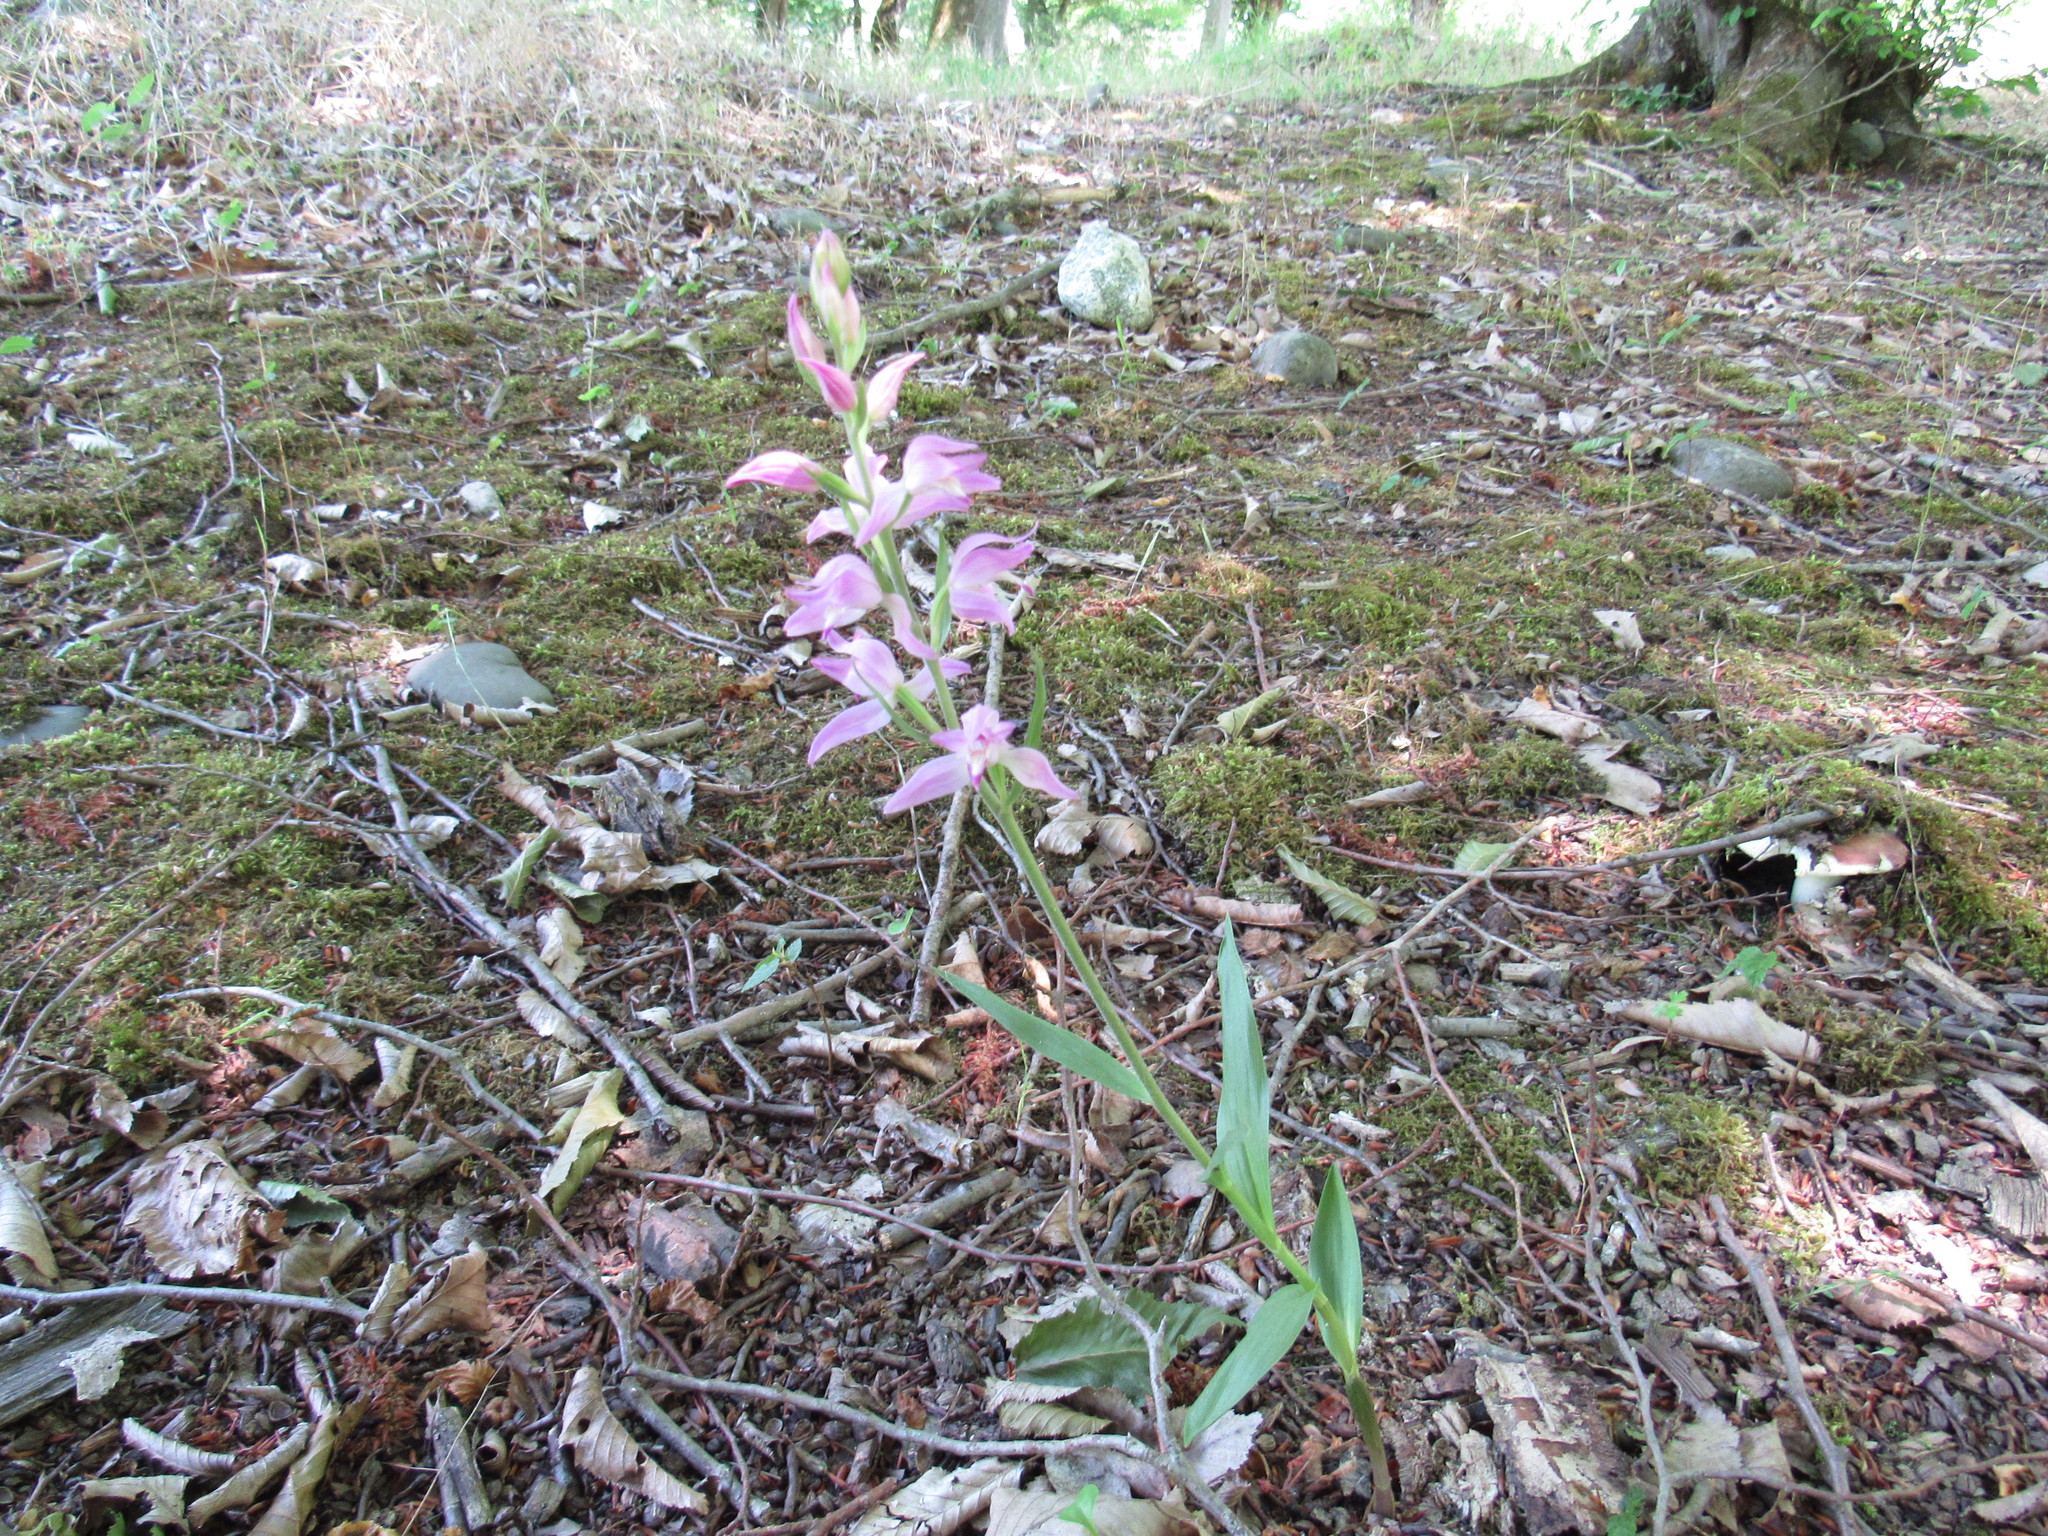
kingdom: Plantae
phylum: Tracheophyta
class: Liliopsida
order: Asparagales
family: Orchidaceae
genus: Cephalanthera
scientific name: Cephalanthera rubra
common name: Red helleborine
